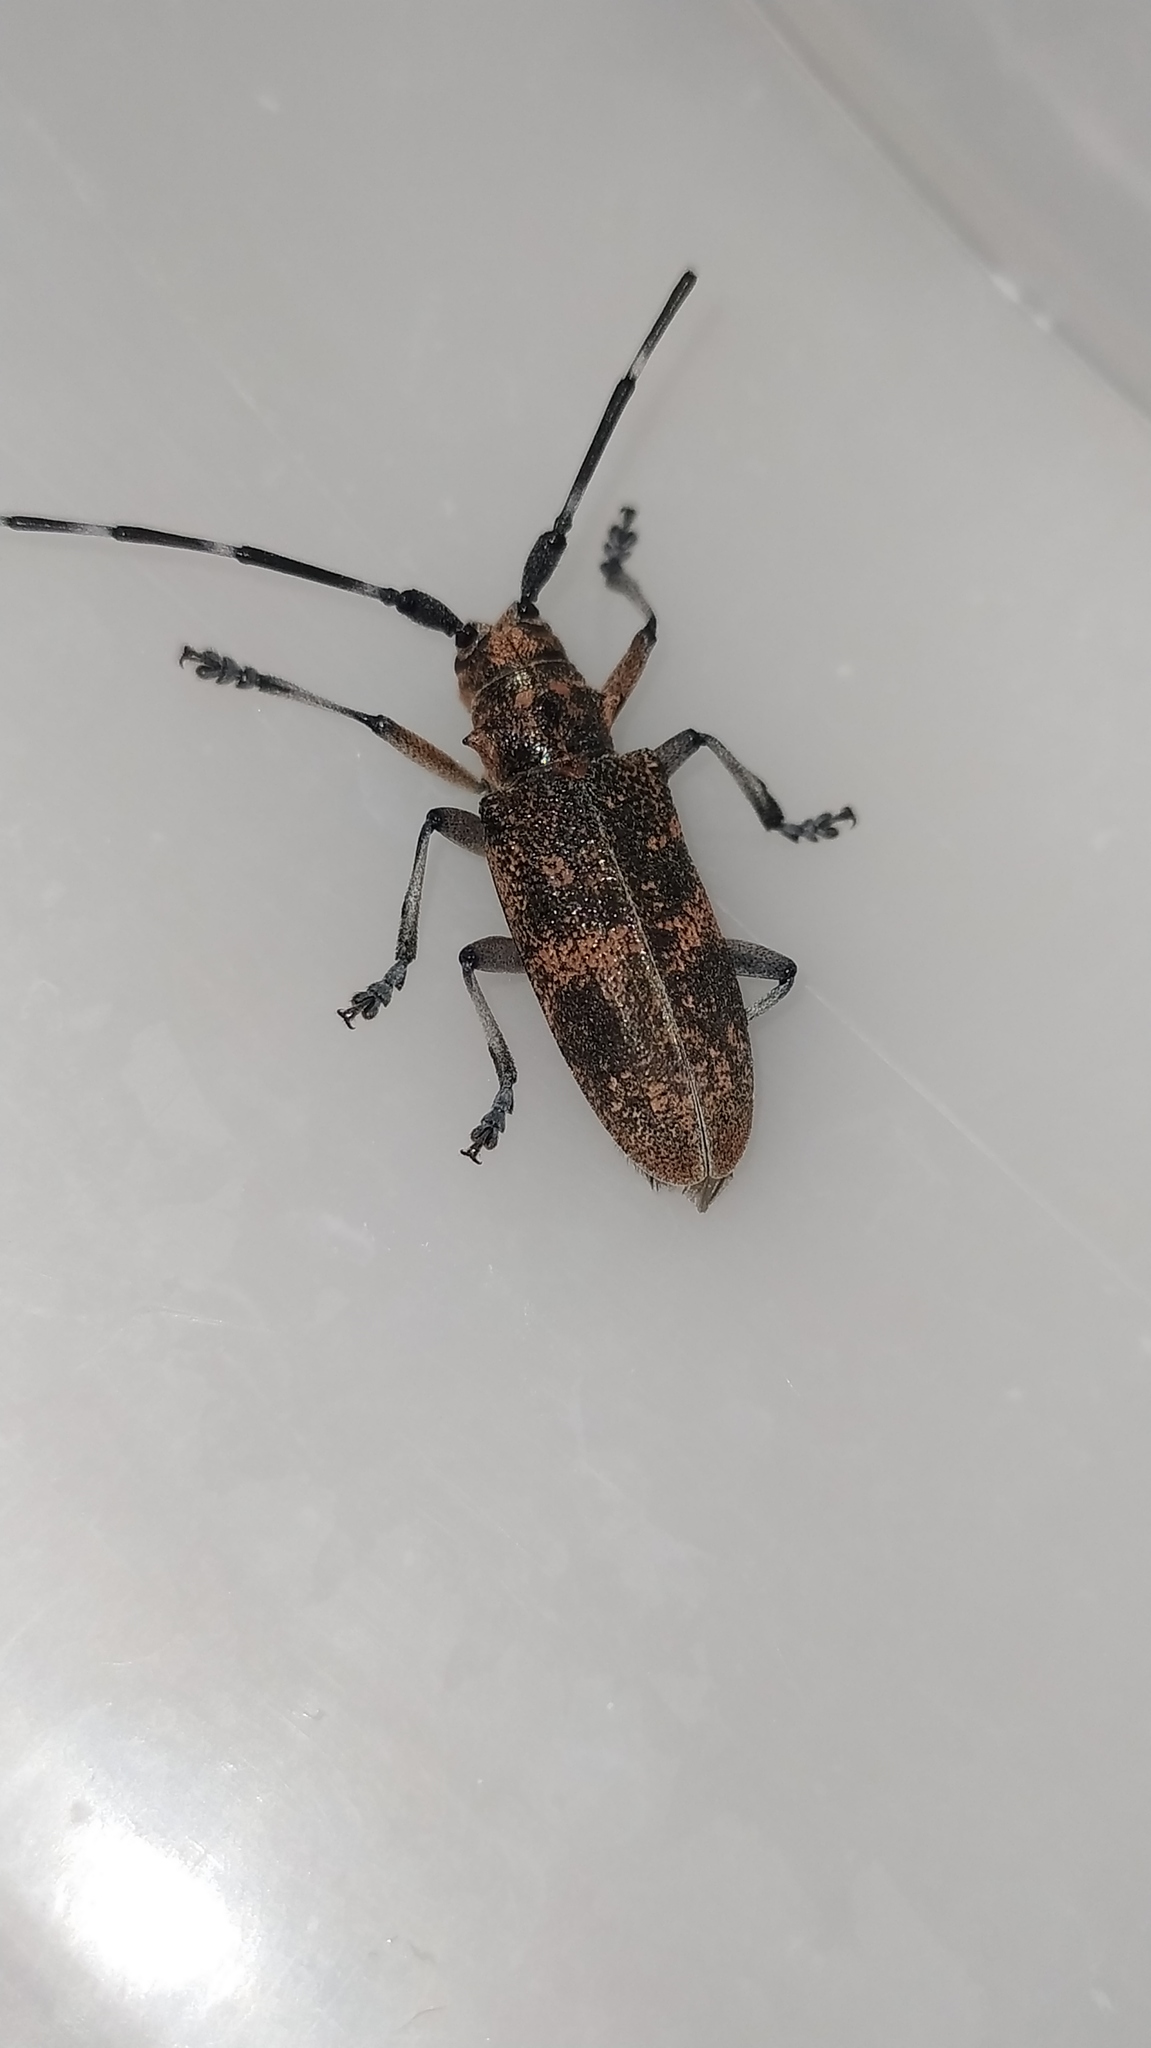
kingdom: Animalia
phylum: Arthropoda
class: Insecta
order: Coleoptera
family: Cerambycidae
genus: Monochamus
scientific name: Monochamus galloprovincialis
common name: Pine sawyer
